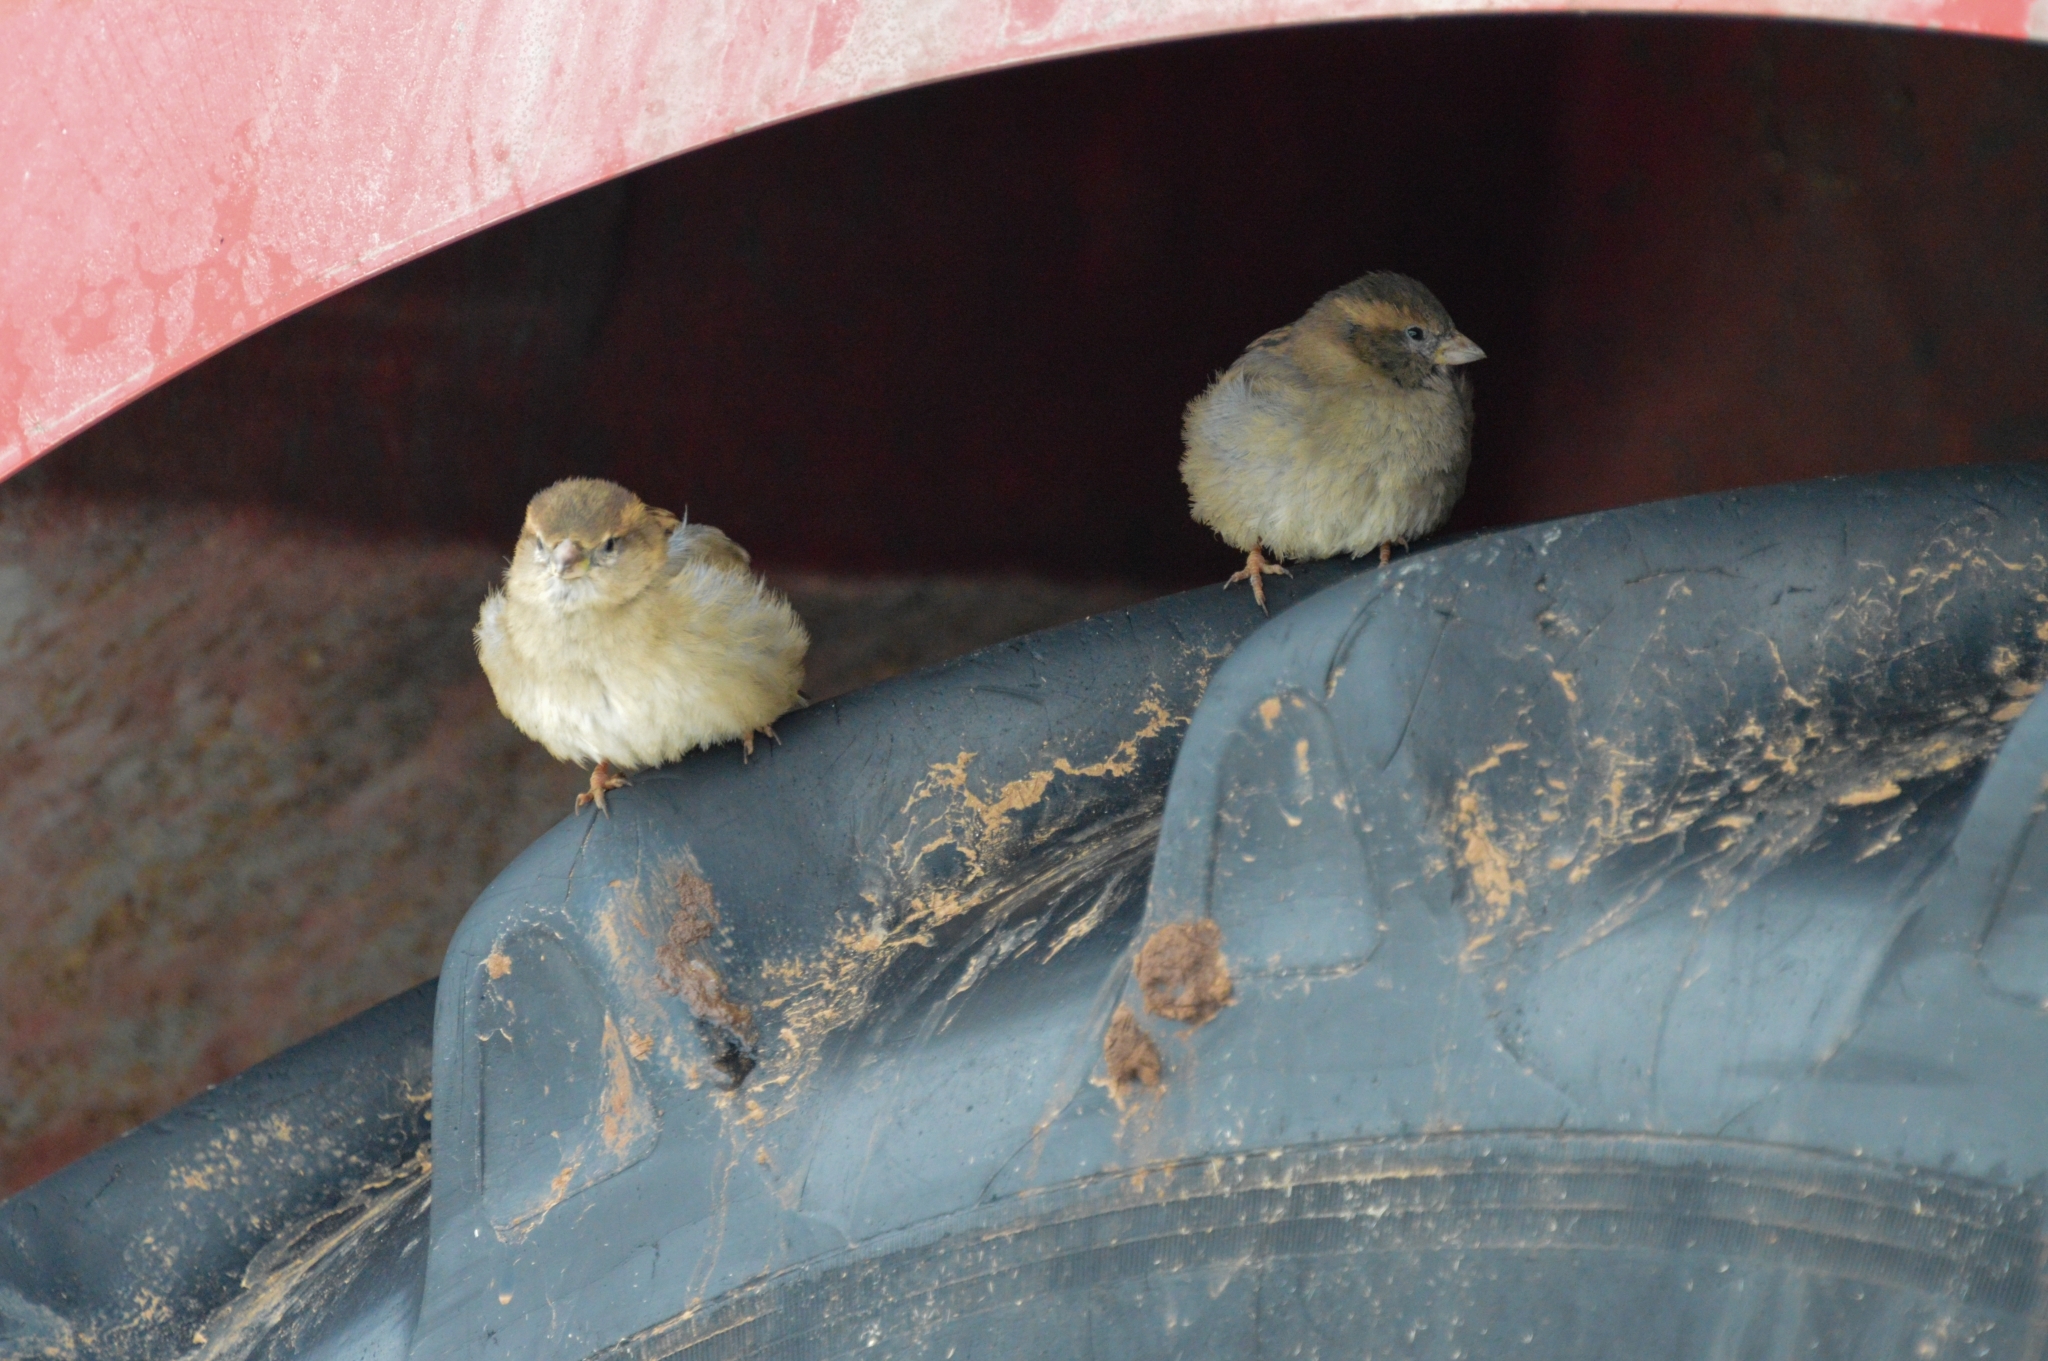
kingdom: Animalia
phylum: Chordata
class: Aves
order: Passeriformes
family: Passeridae
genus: Passer
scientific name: Passer domesticus
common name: House sparrow
